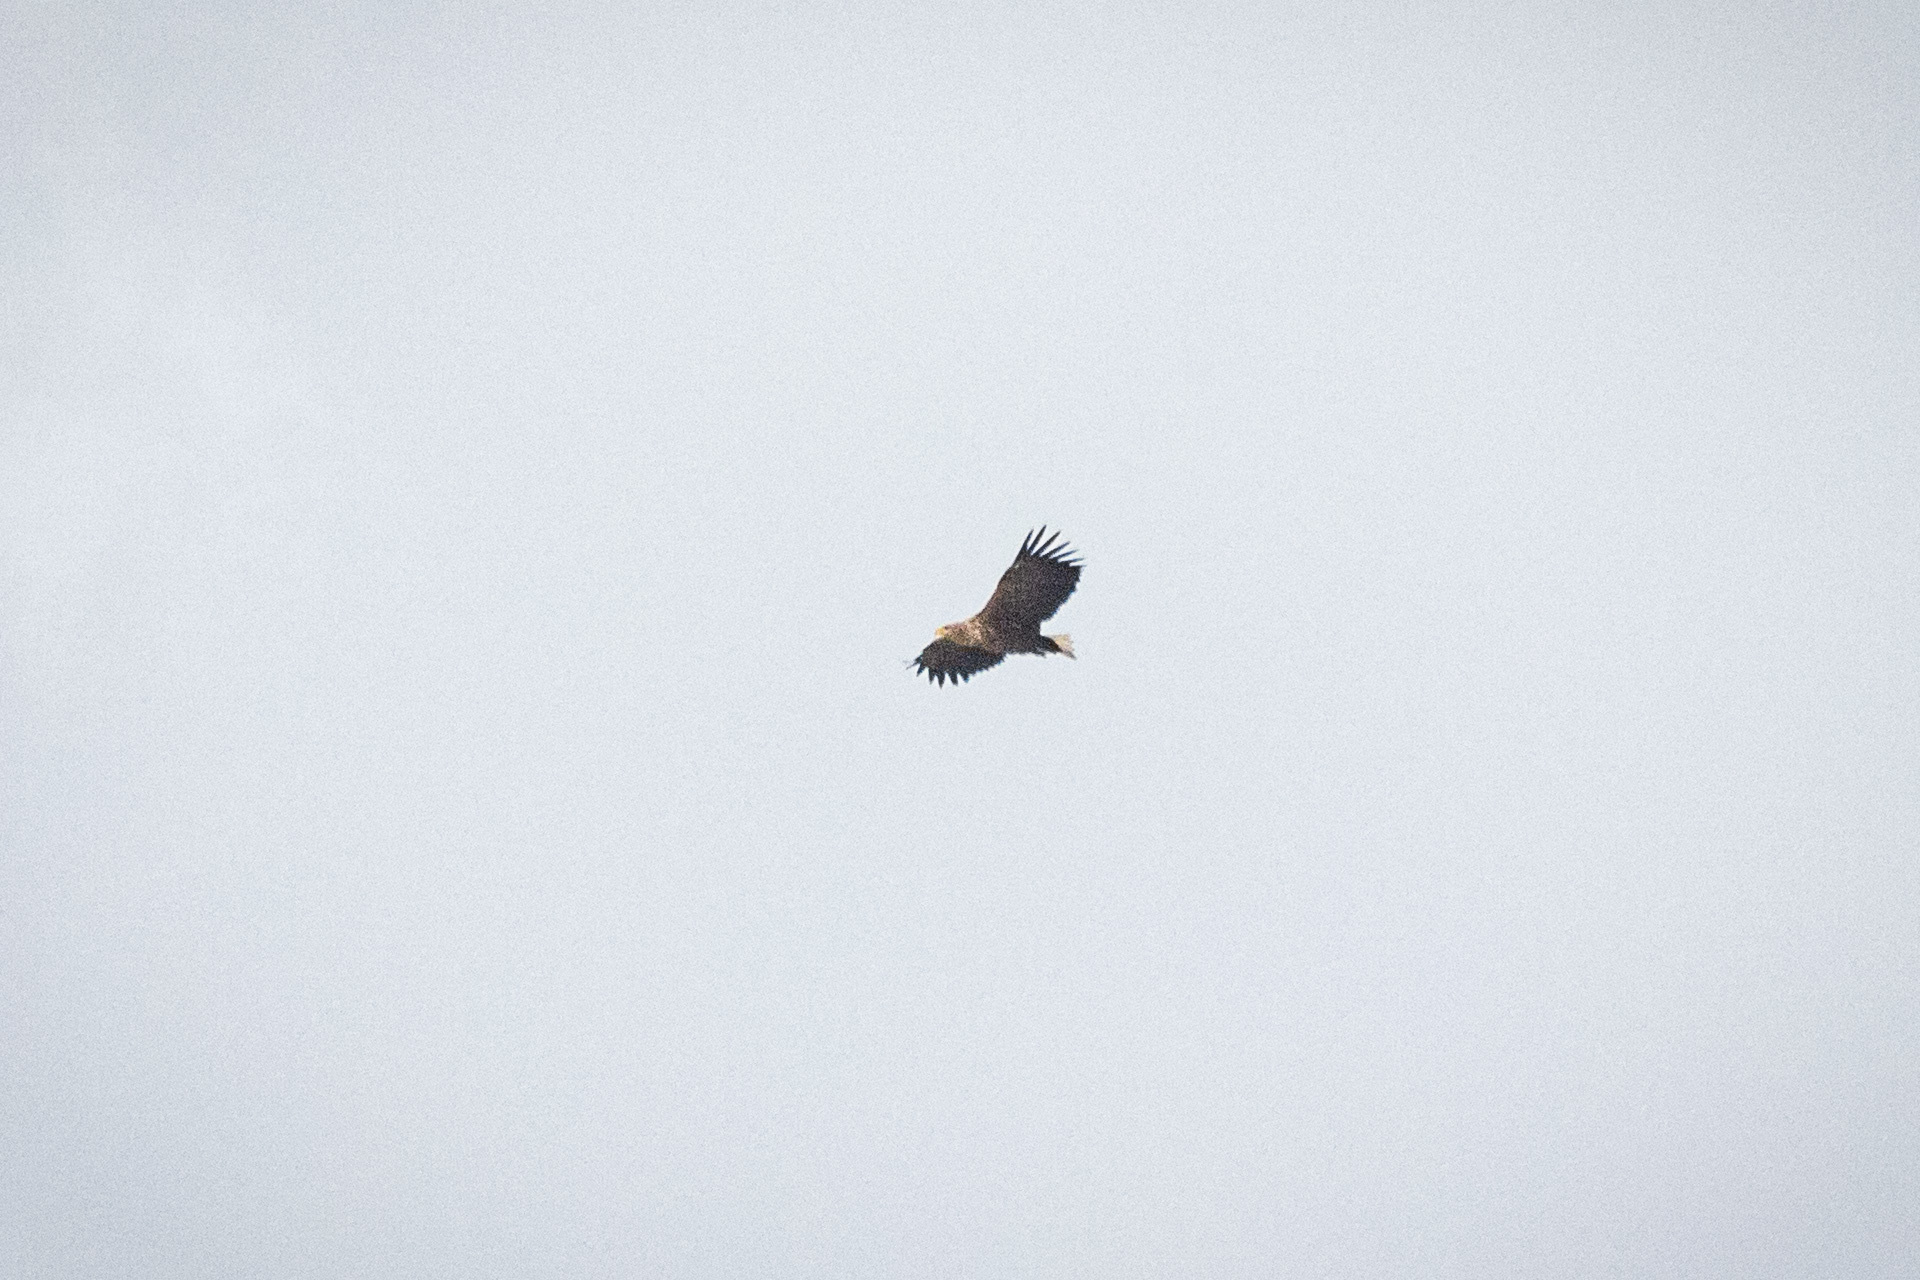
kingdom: Animalia
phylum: Chordata
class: Aves
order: Accipitriformes
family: Accipitridae
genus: Haliaeetus
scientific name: Haliaeetus albicilla
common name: White-tailed eagle
